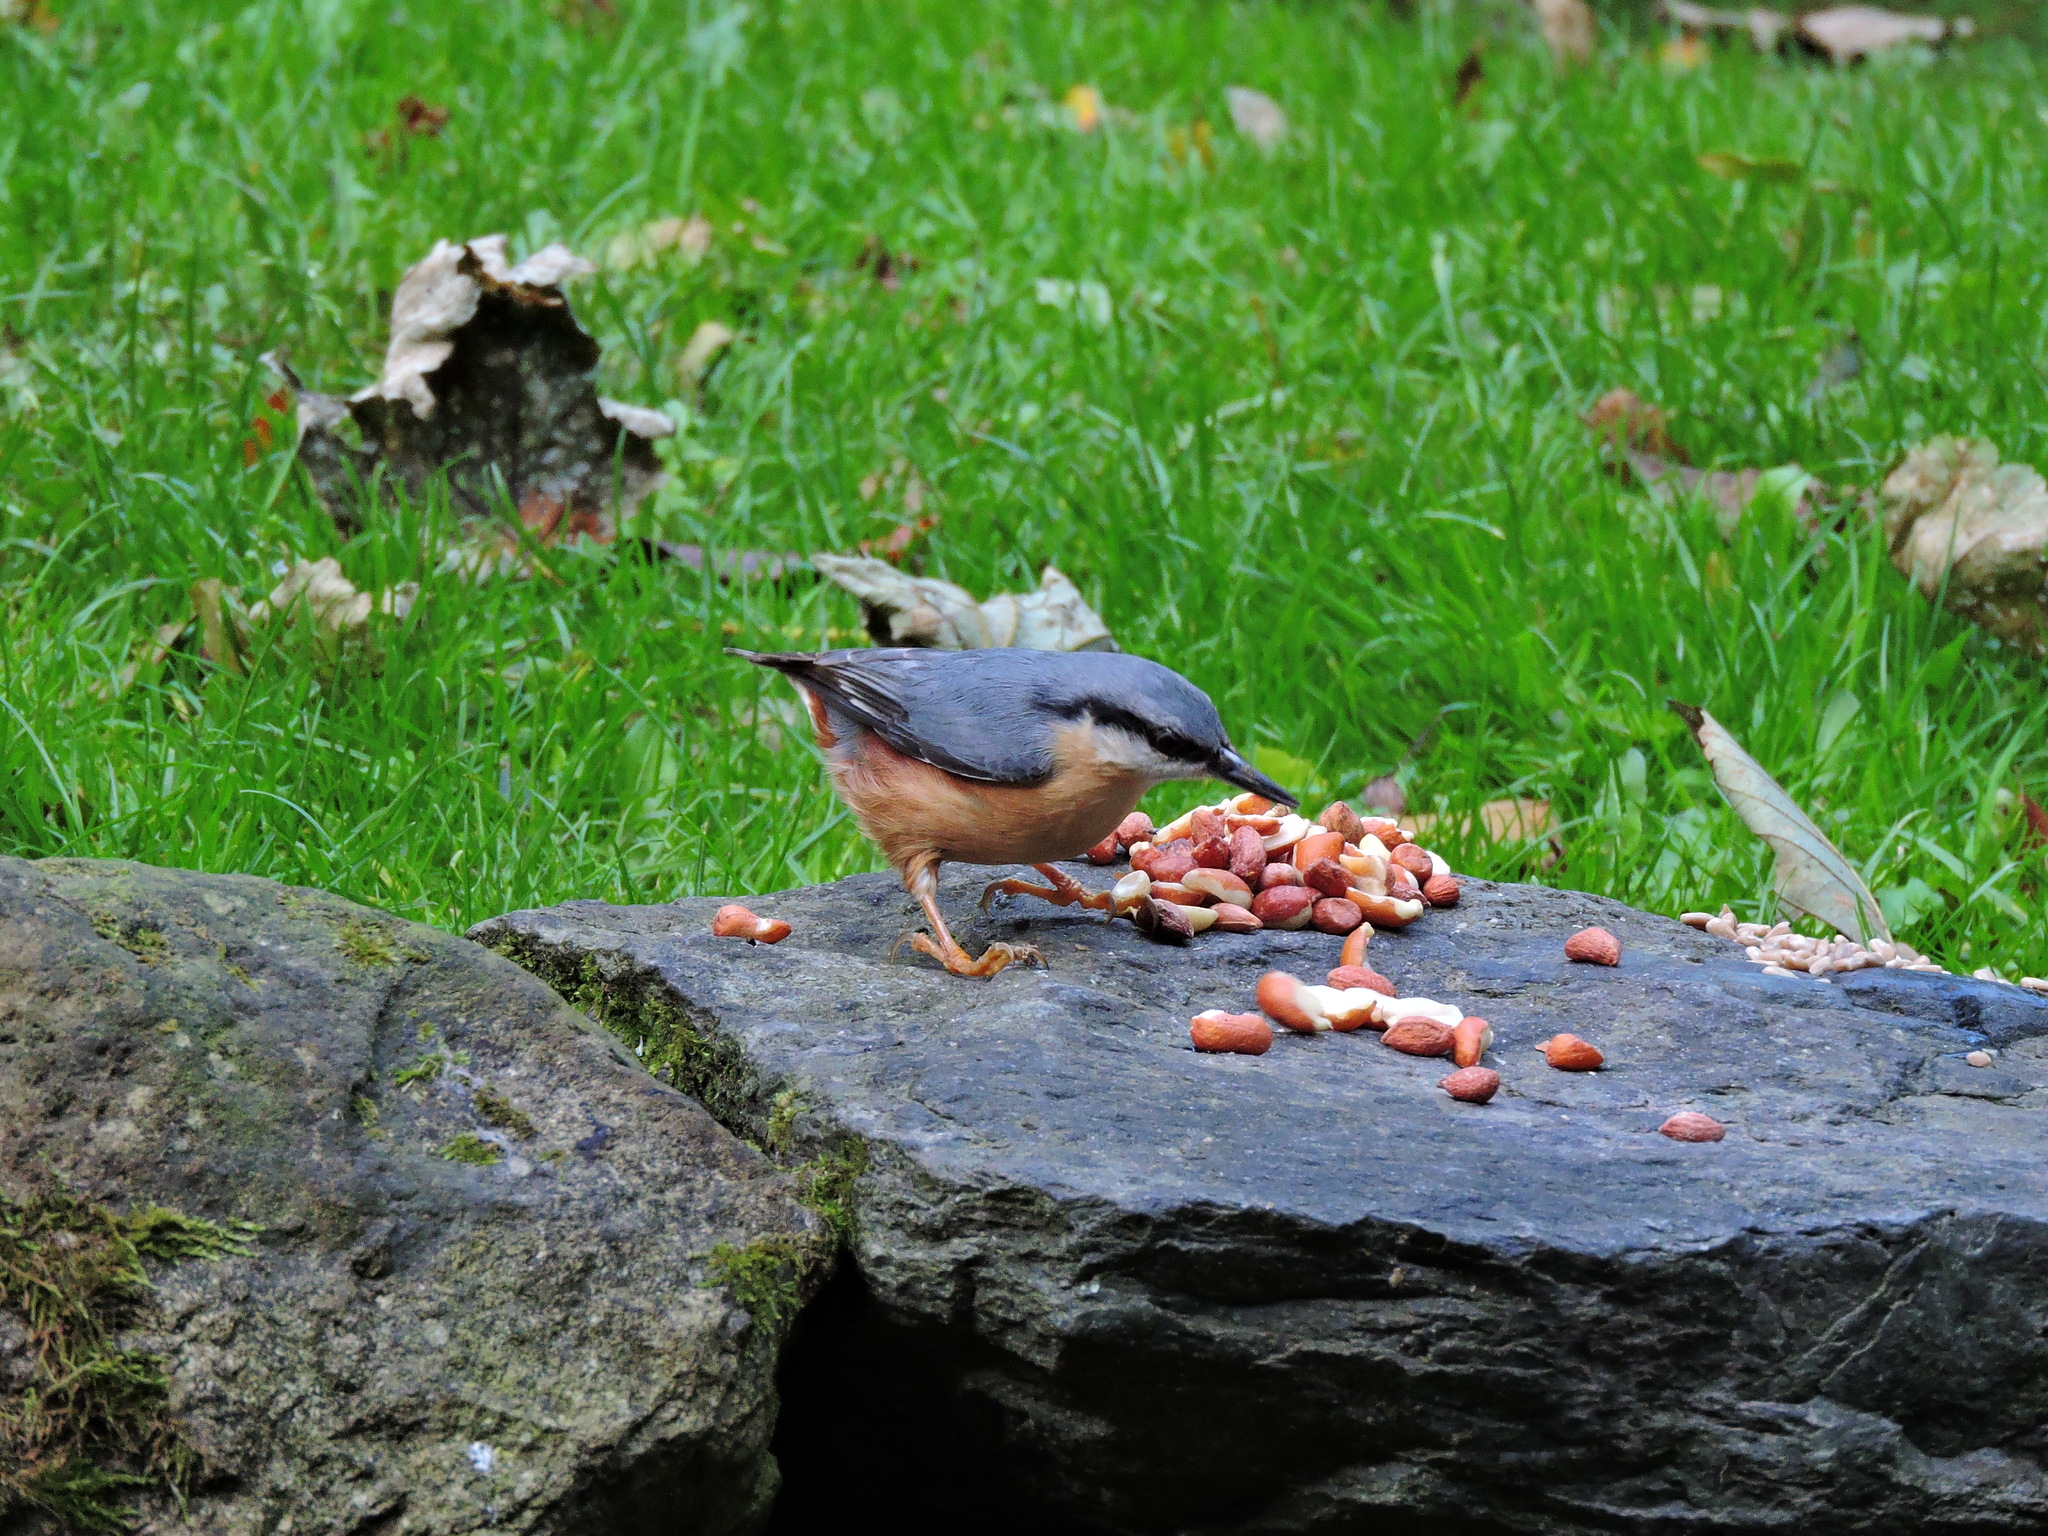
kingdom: Animalia
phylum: Chordata
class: Aves
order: Passeriformes
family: Sittidae
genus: Sitta
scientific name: Sitta europaea
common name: Eurasian nuthatch
